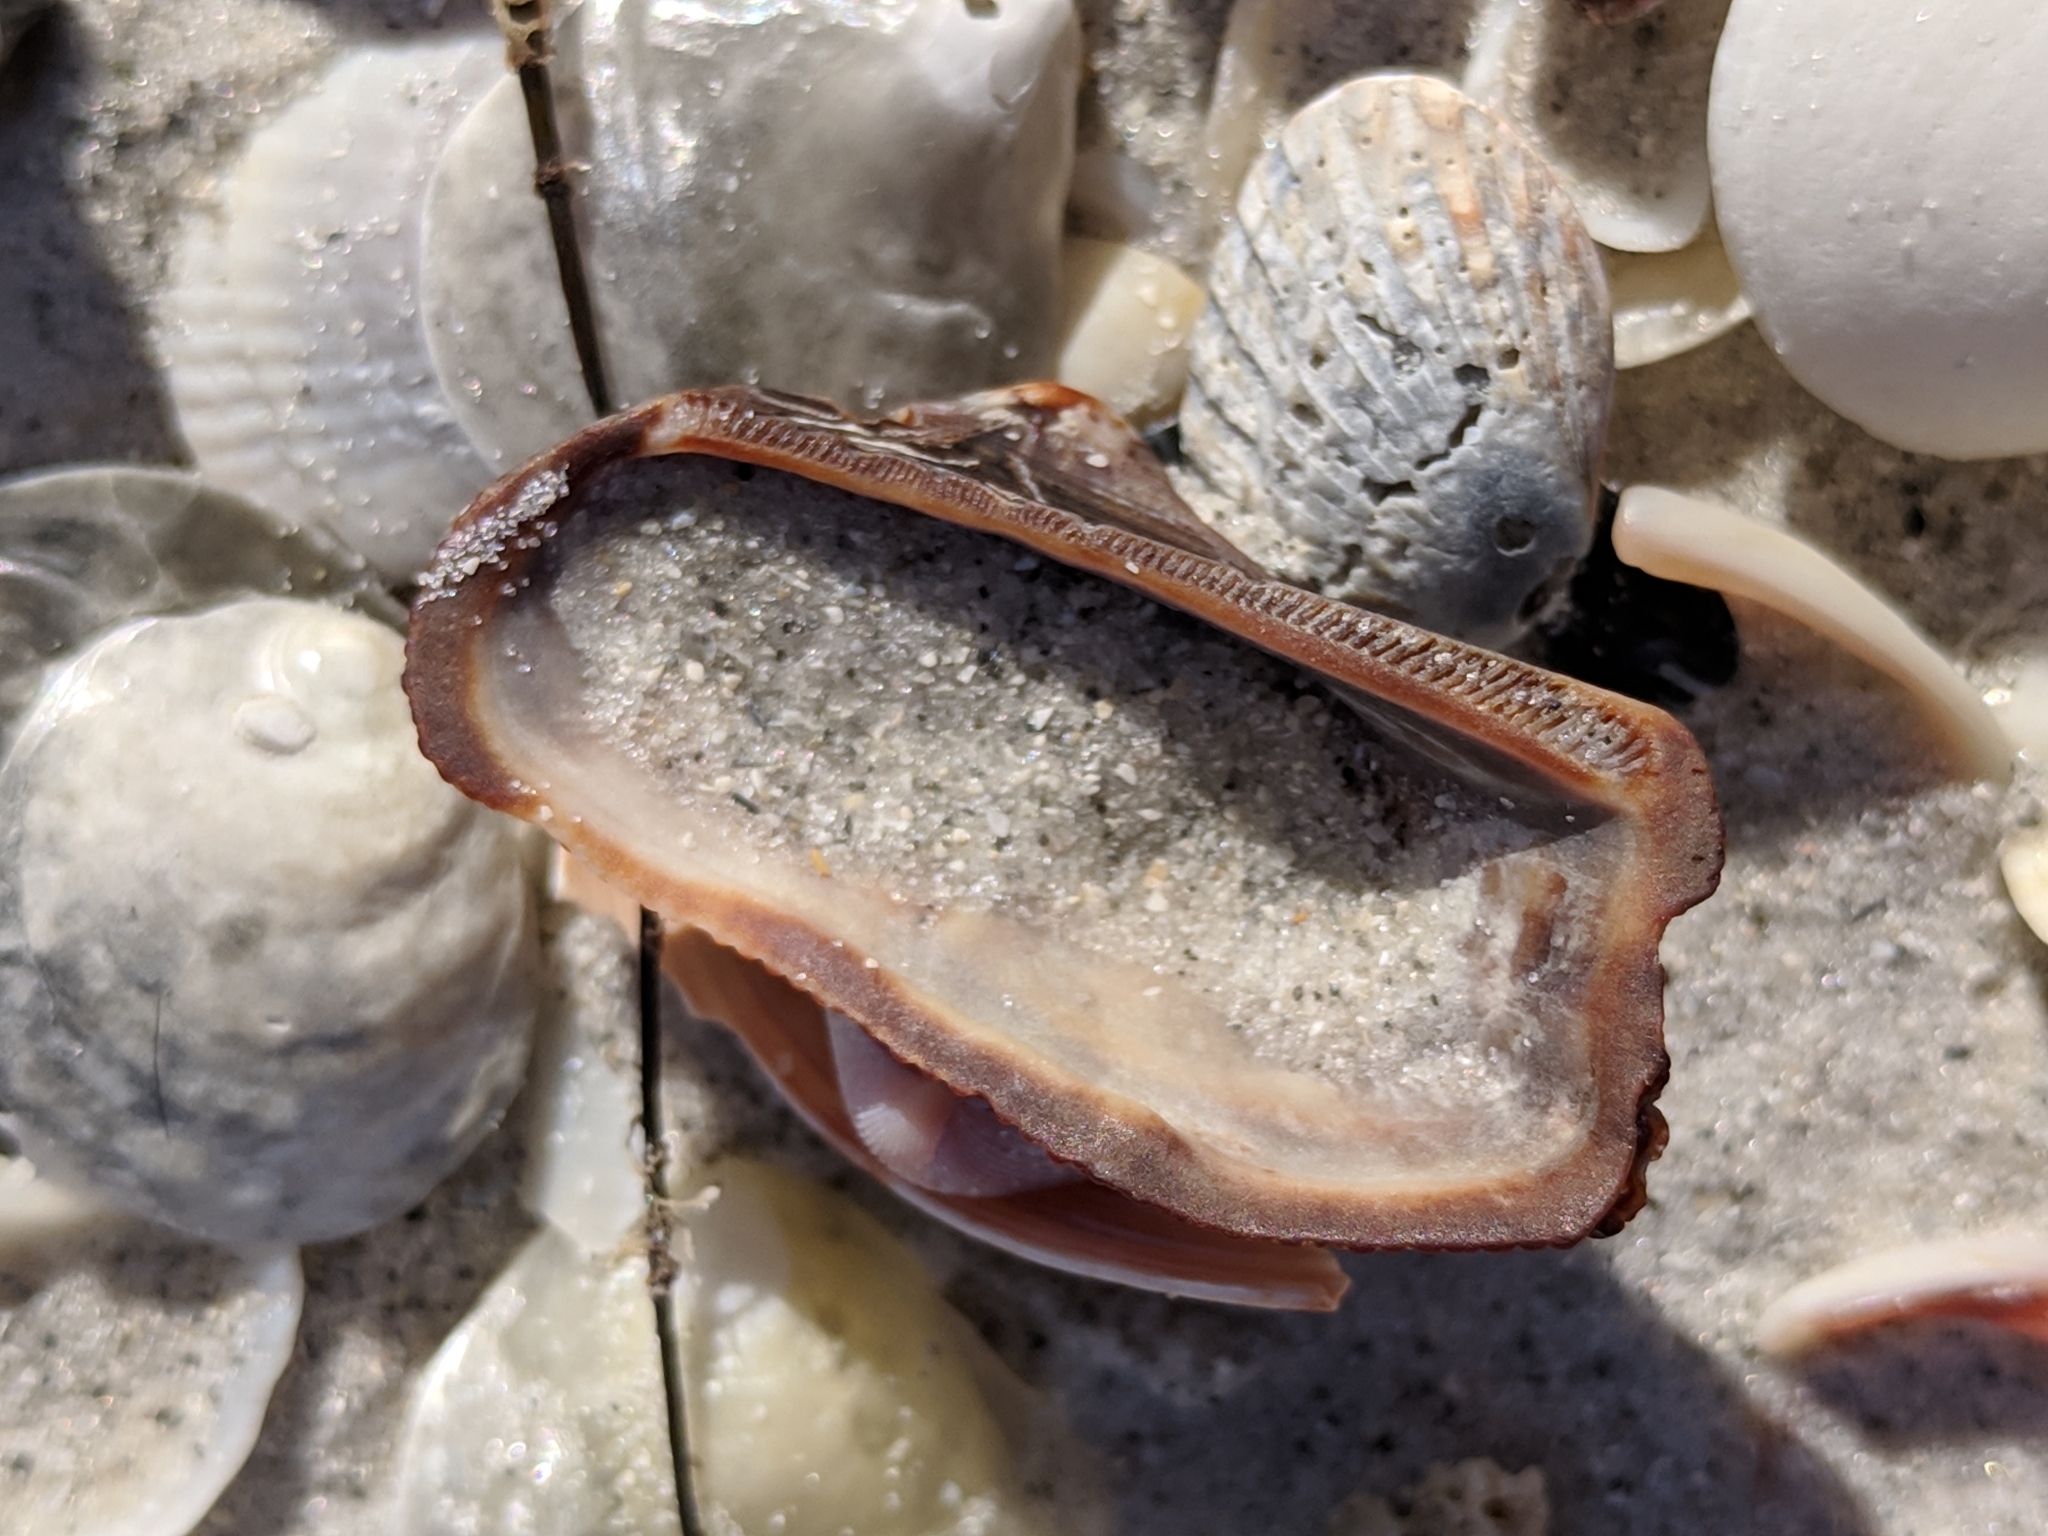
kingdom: Animalia
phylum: Mollusca
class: Bivalvia
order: Arcida
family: Arcidae
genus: Lamarcka
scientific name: Lamarcka imbricata
